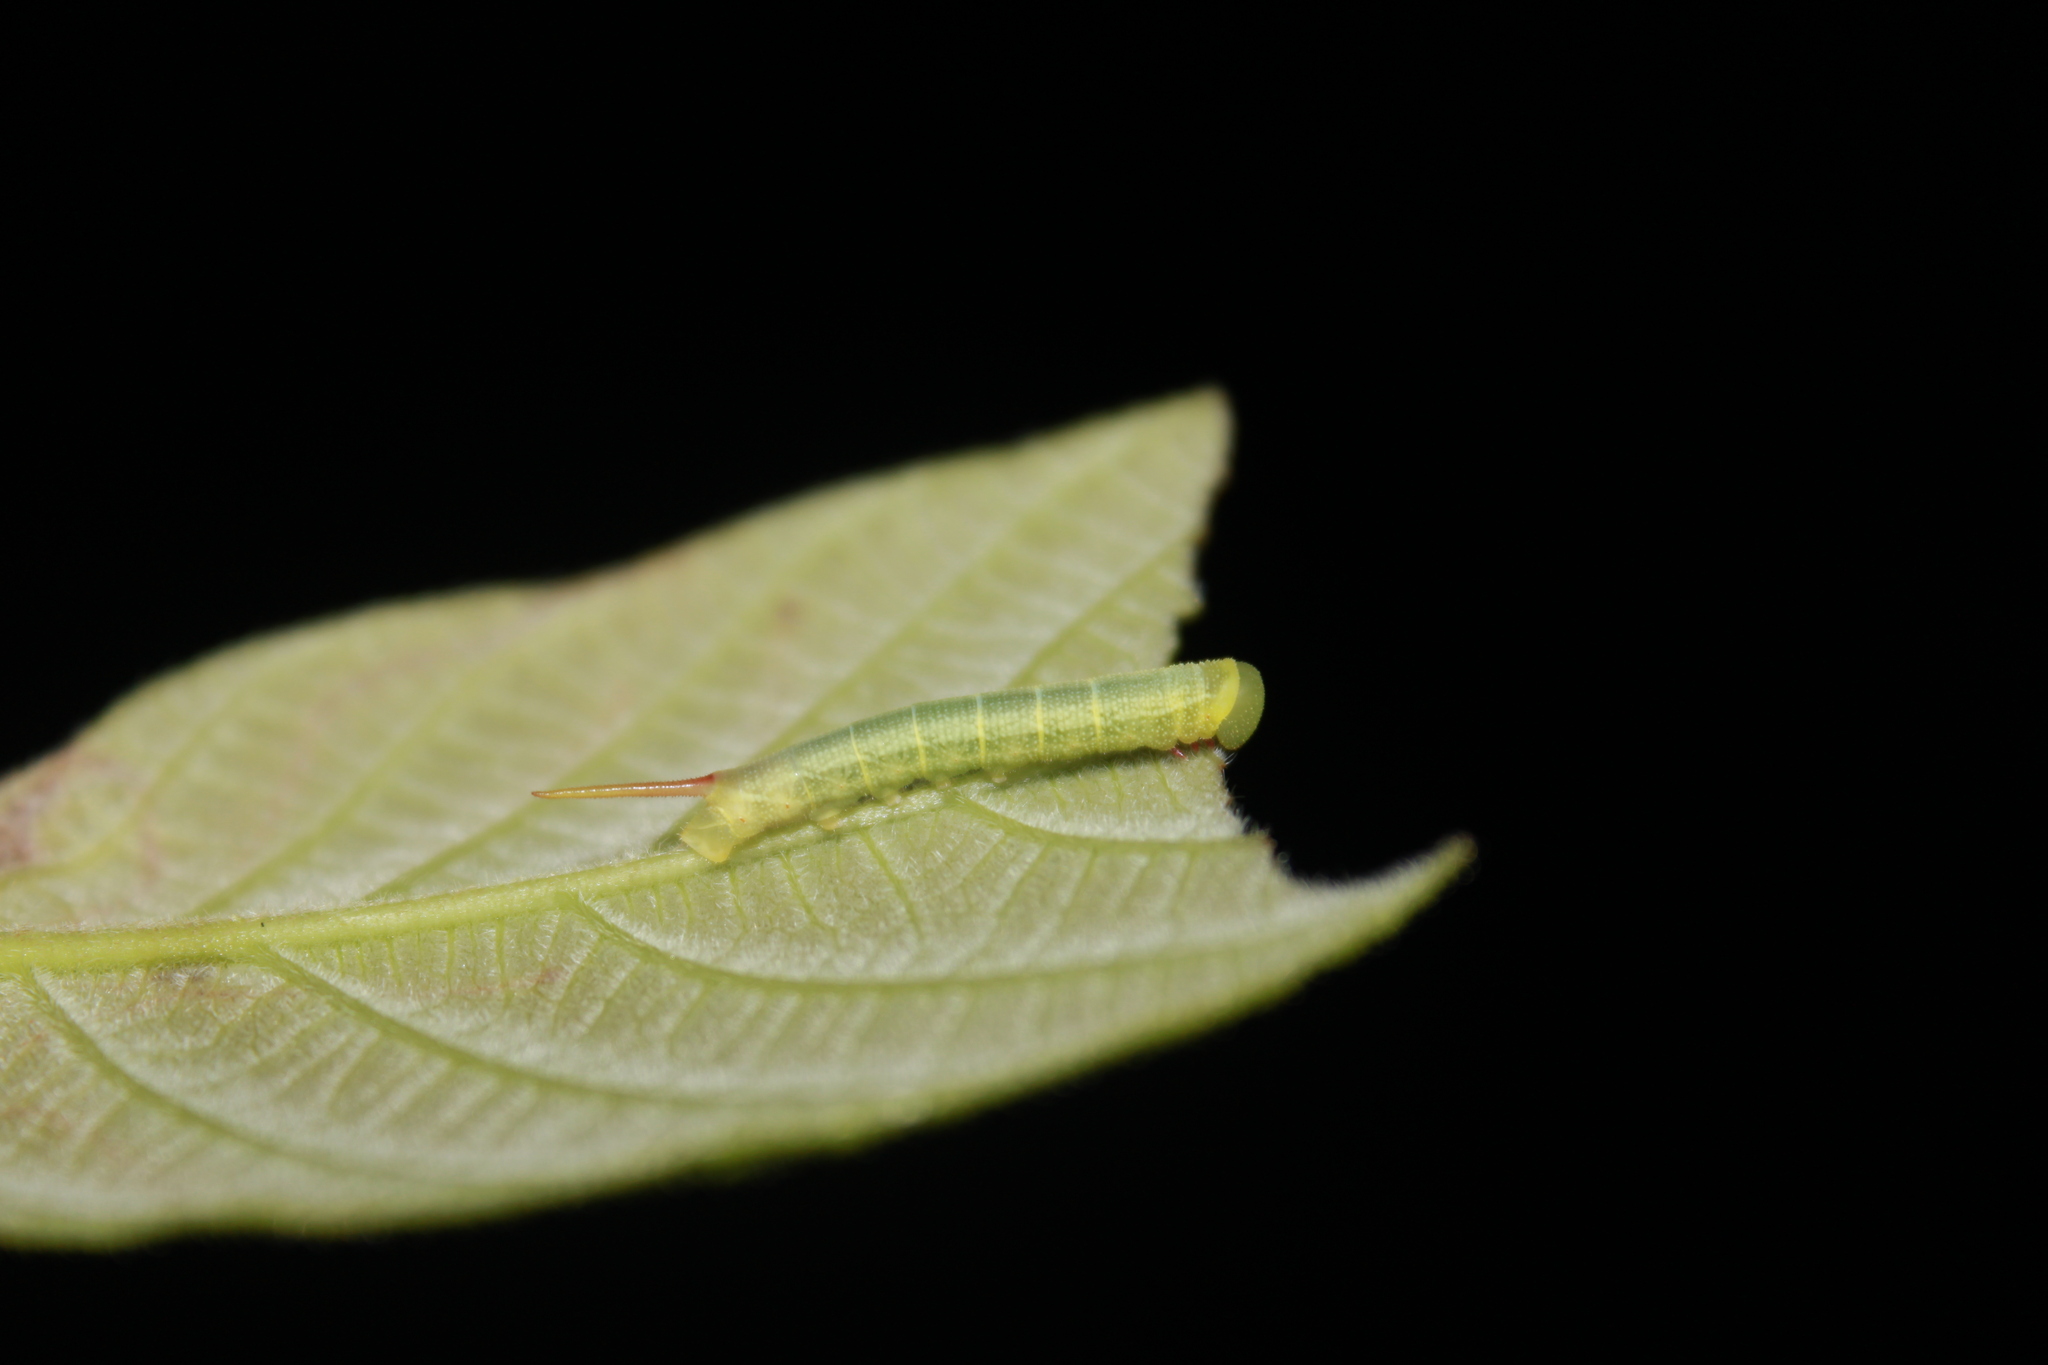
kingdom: Animalia
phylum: Arthropoda
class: Insecta
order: Lepidoptera
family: Sphingidae
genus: Perigonia
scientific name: Perigonia lusca
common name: Half-blind sphinx
